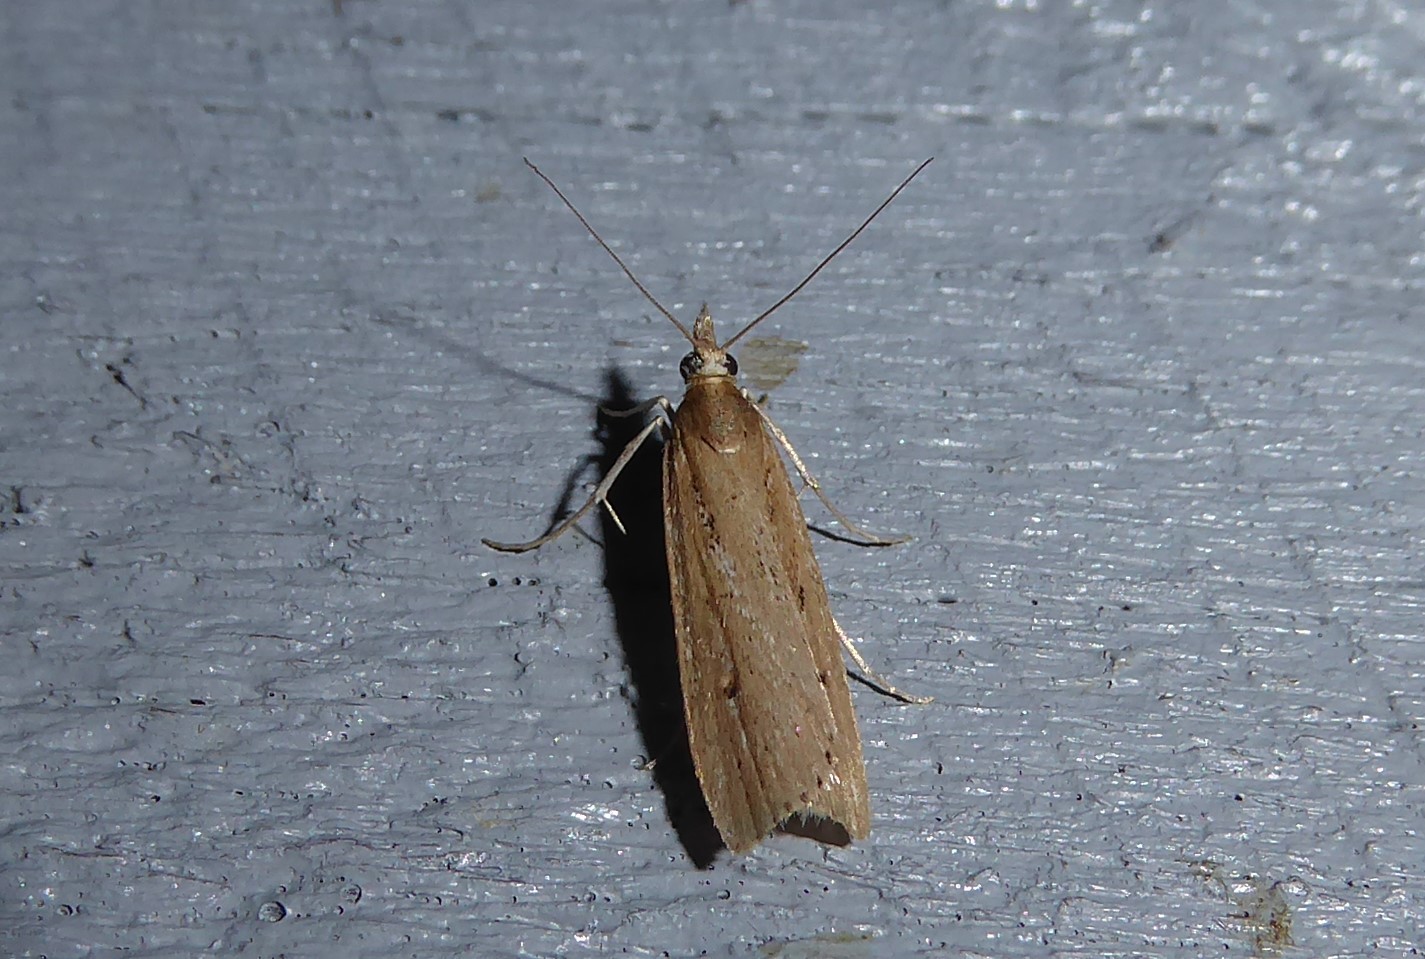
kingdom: Animalia
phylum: Arthropoda
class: Insecta
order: Lepidoptera
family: Crambidae
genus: Eudonia
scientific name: Eudonia sabulosella
